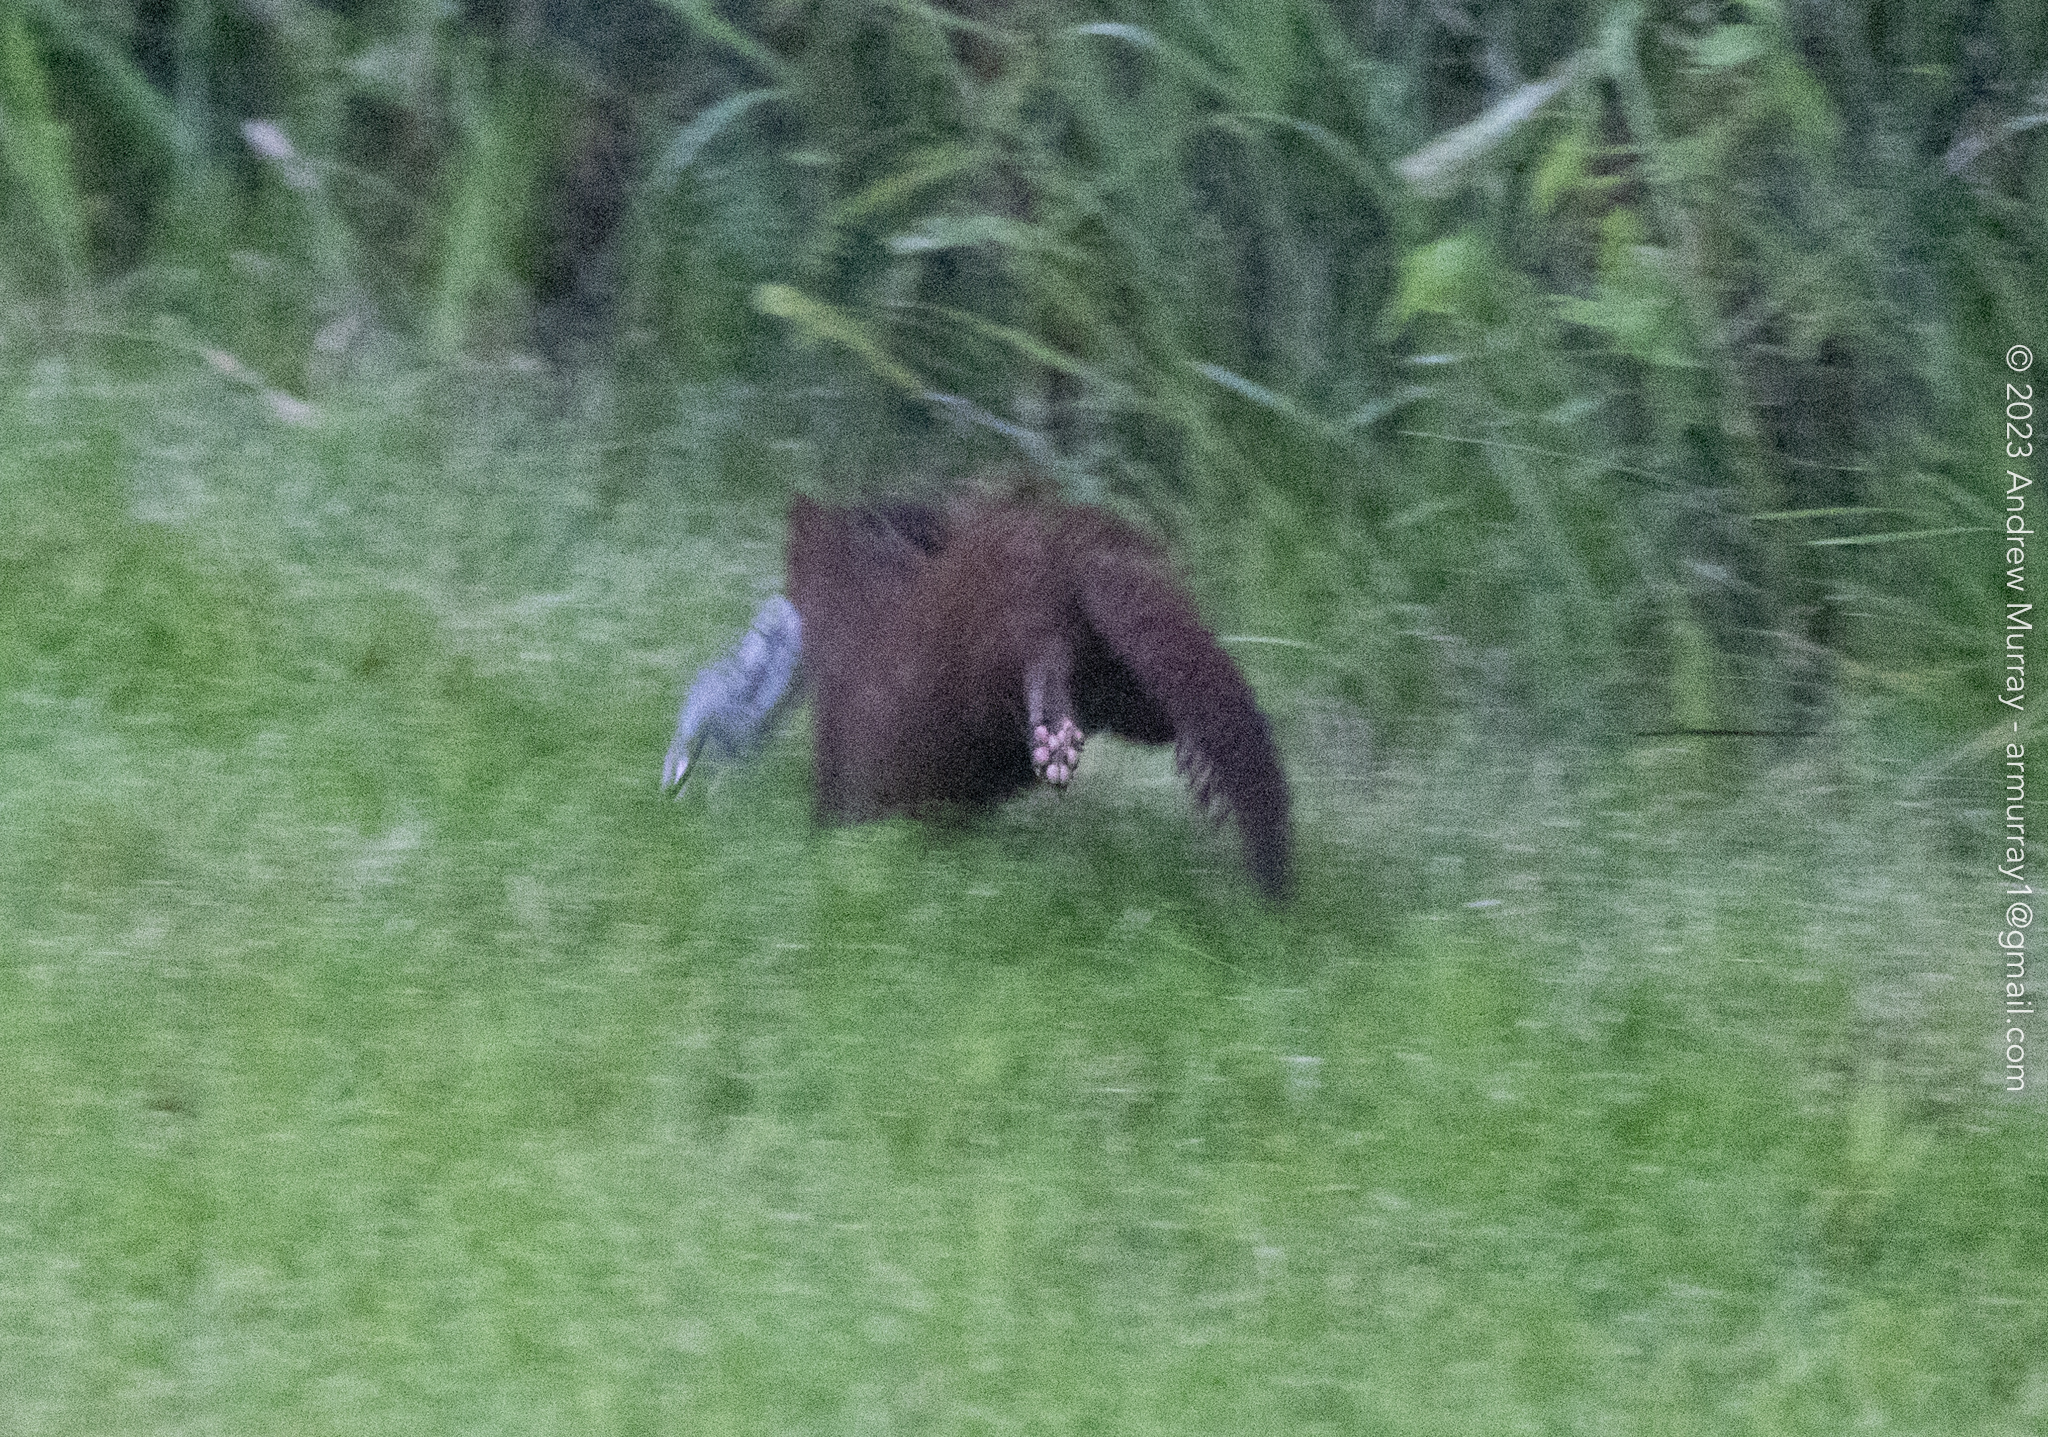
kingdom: Animalia
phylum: Chordata
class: Mammalia
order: Carnivora
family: Mustelidae
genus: Mustela
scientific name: Mustela
